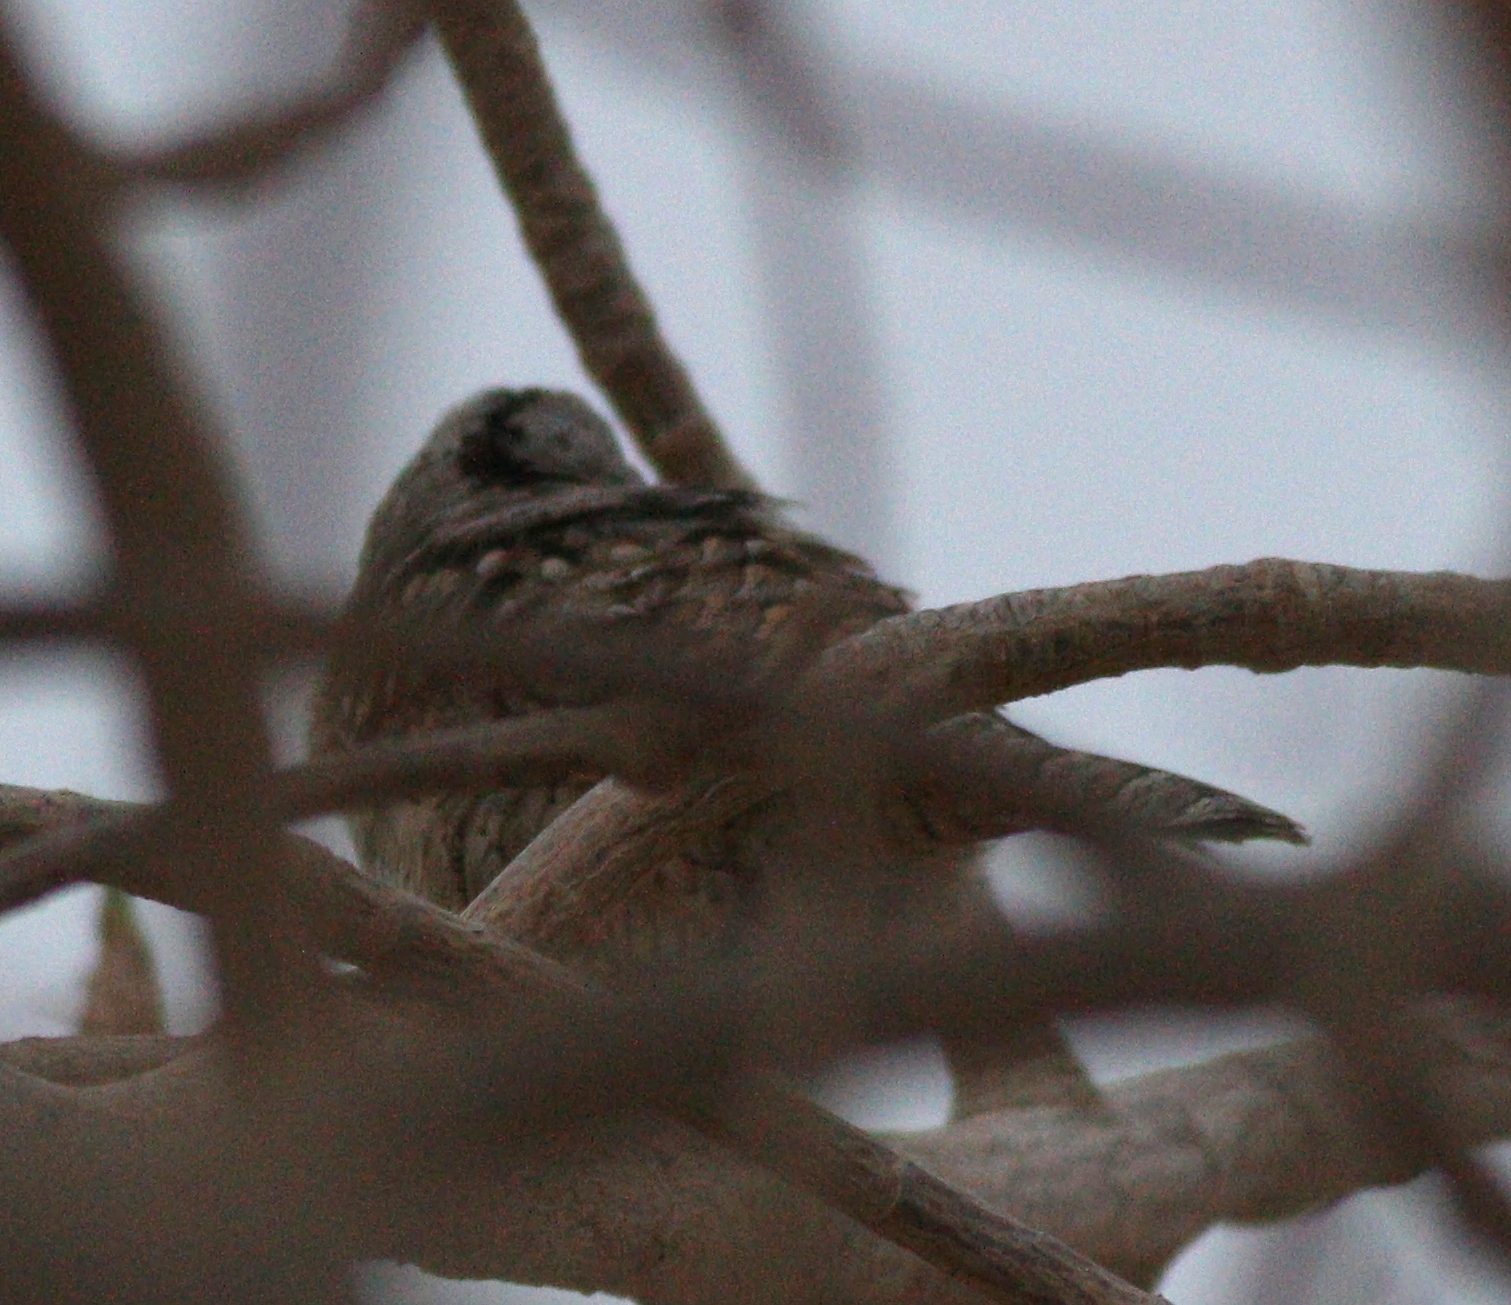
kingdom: Animalia
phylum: Chordata
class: Aves
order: Piciformes
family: Picidae
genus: Jynx
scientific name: Jynx torquilla
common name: Eurasian wryneck
